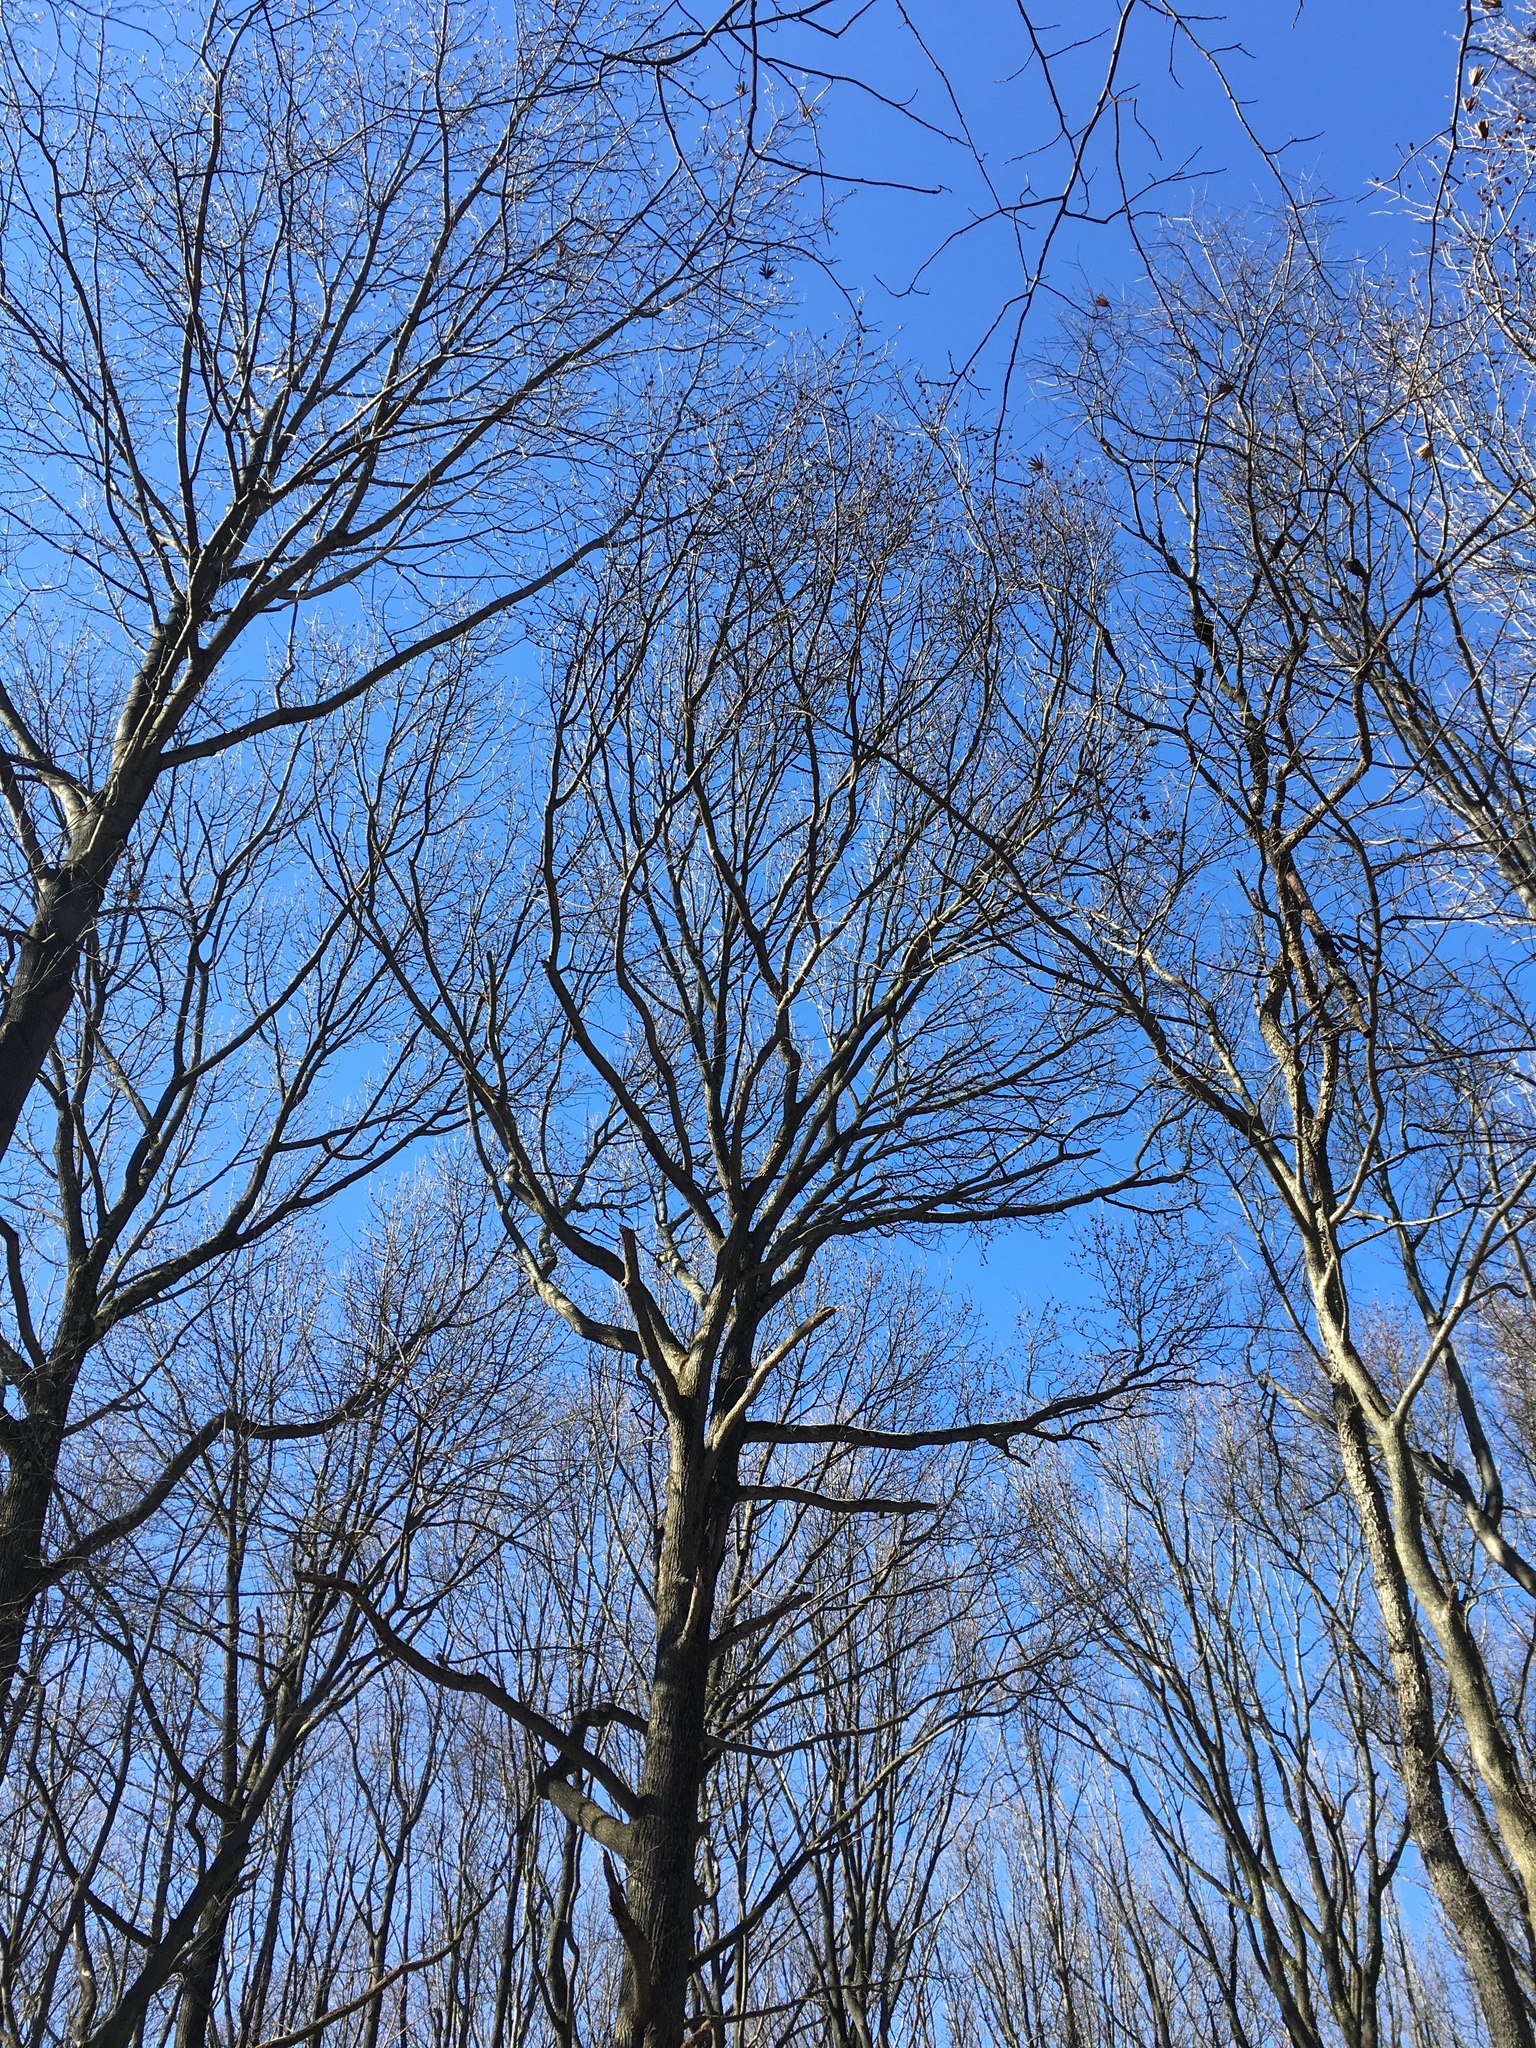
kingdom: Plantae
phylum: Tracheophyta
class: Magnoliopsida
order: Saxifragales
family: Altingiaceae
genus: Liquidambar
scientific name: Liquidambar styraciflua
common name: Sweet gum
